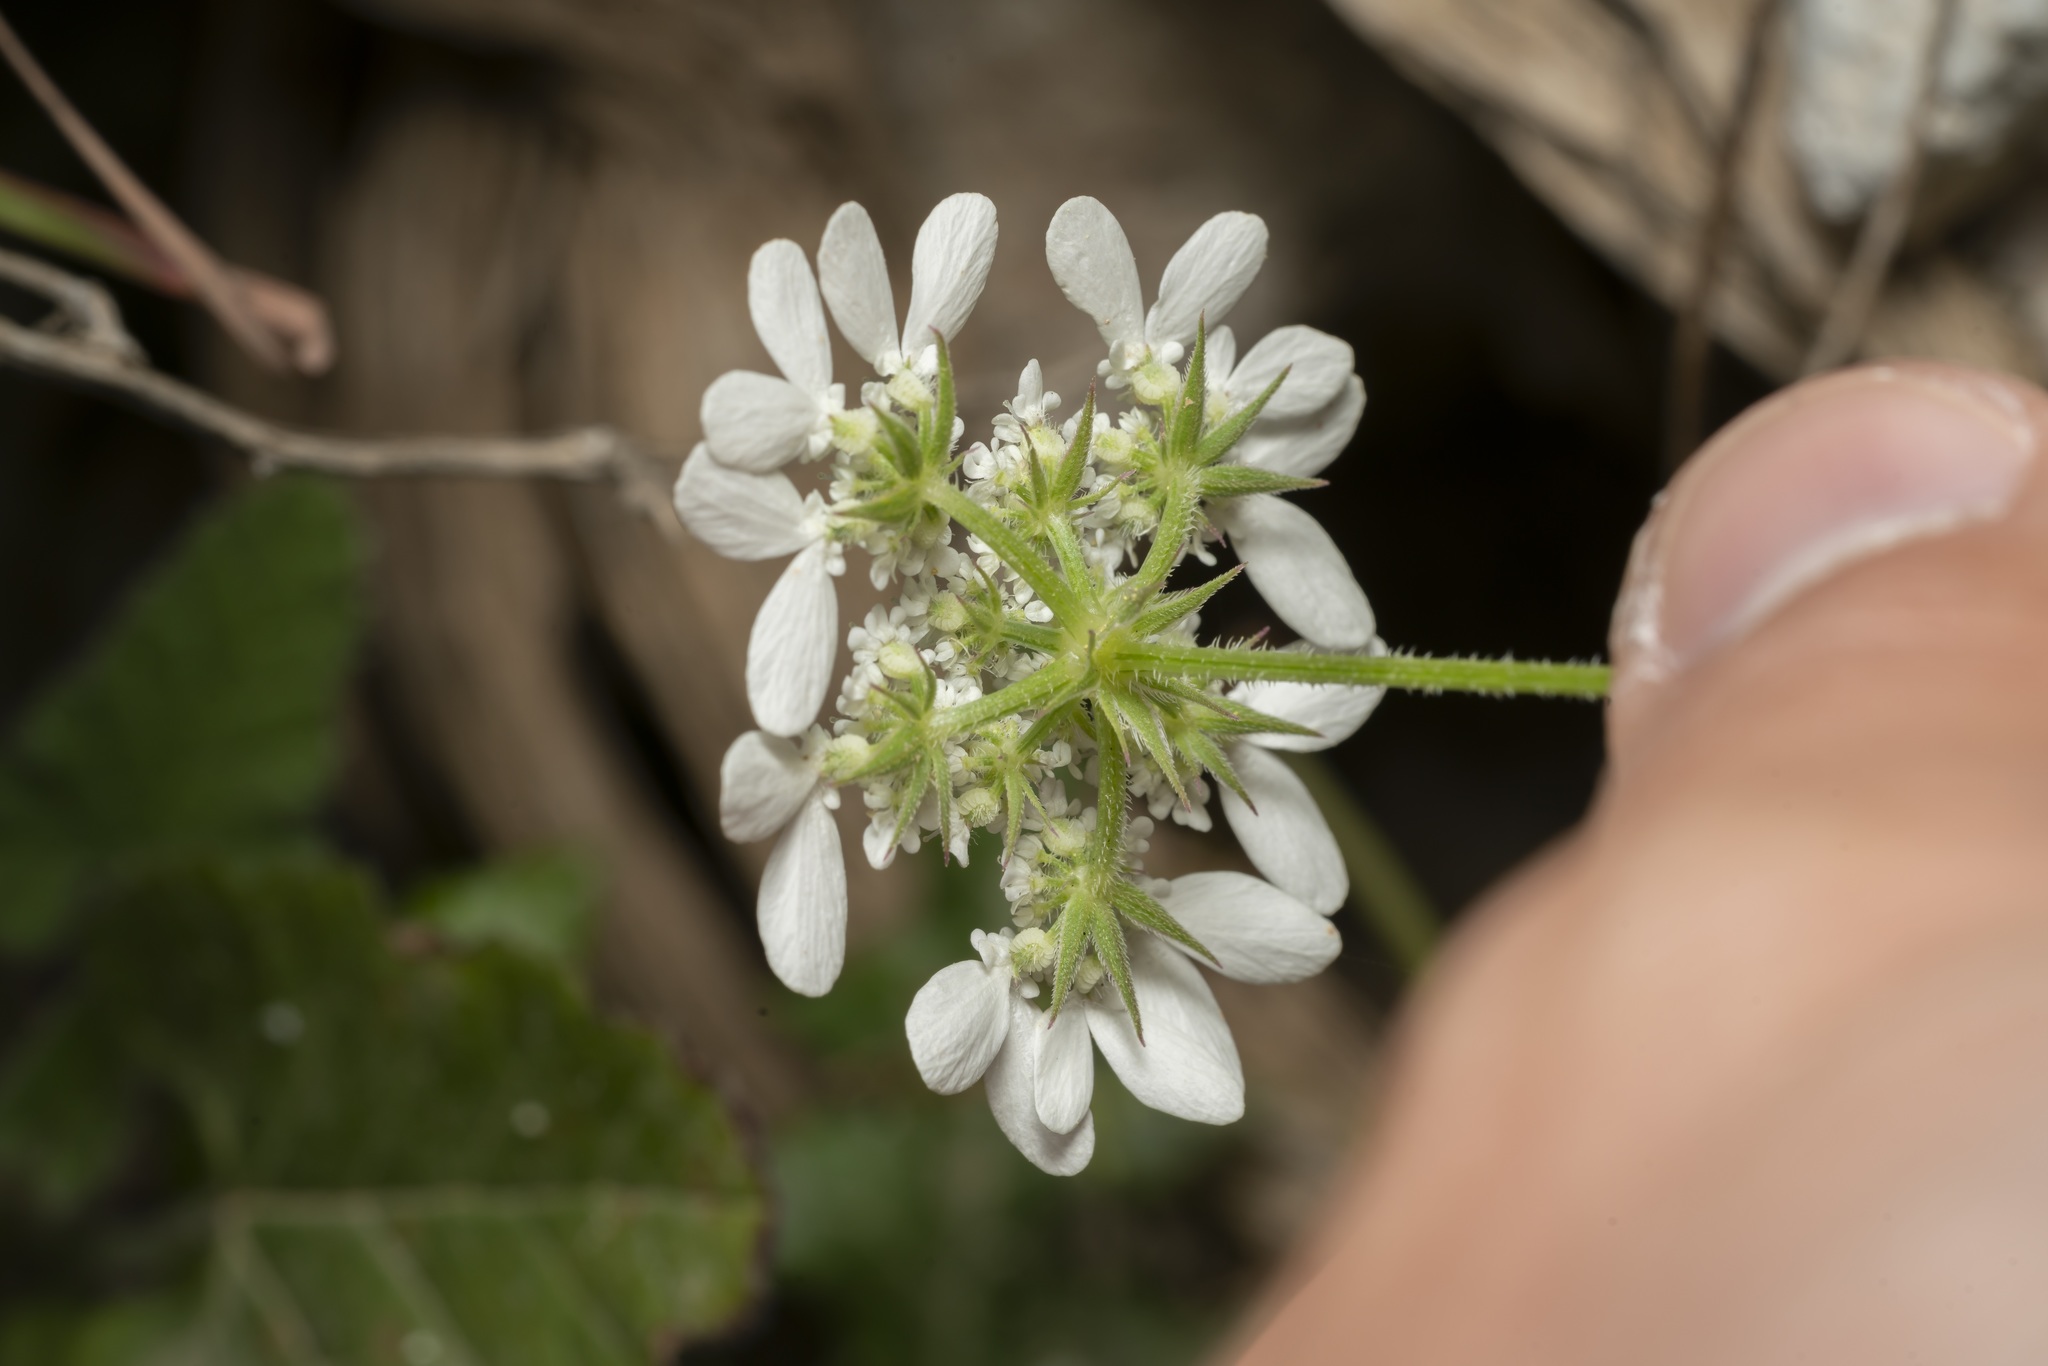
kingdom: Plantae
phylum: Tracheophyta
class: Magnoliopsida
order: Apiales
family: Apiaceae
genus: Tordylium
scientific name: Tordylium aegaeum
